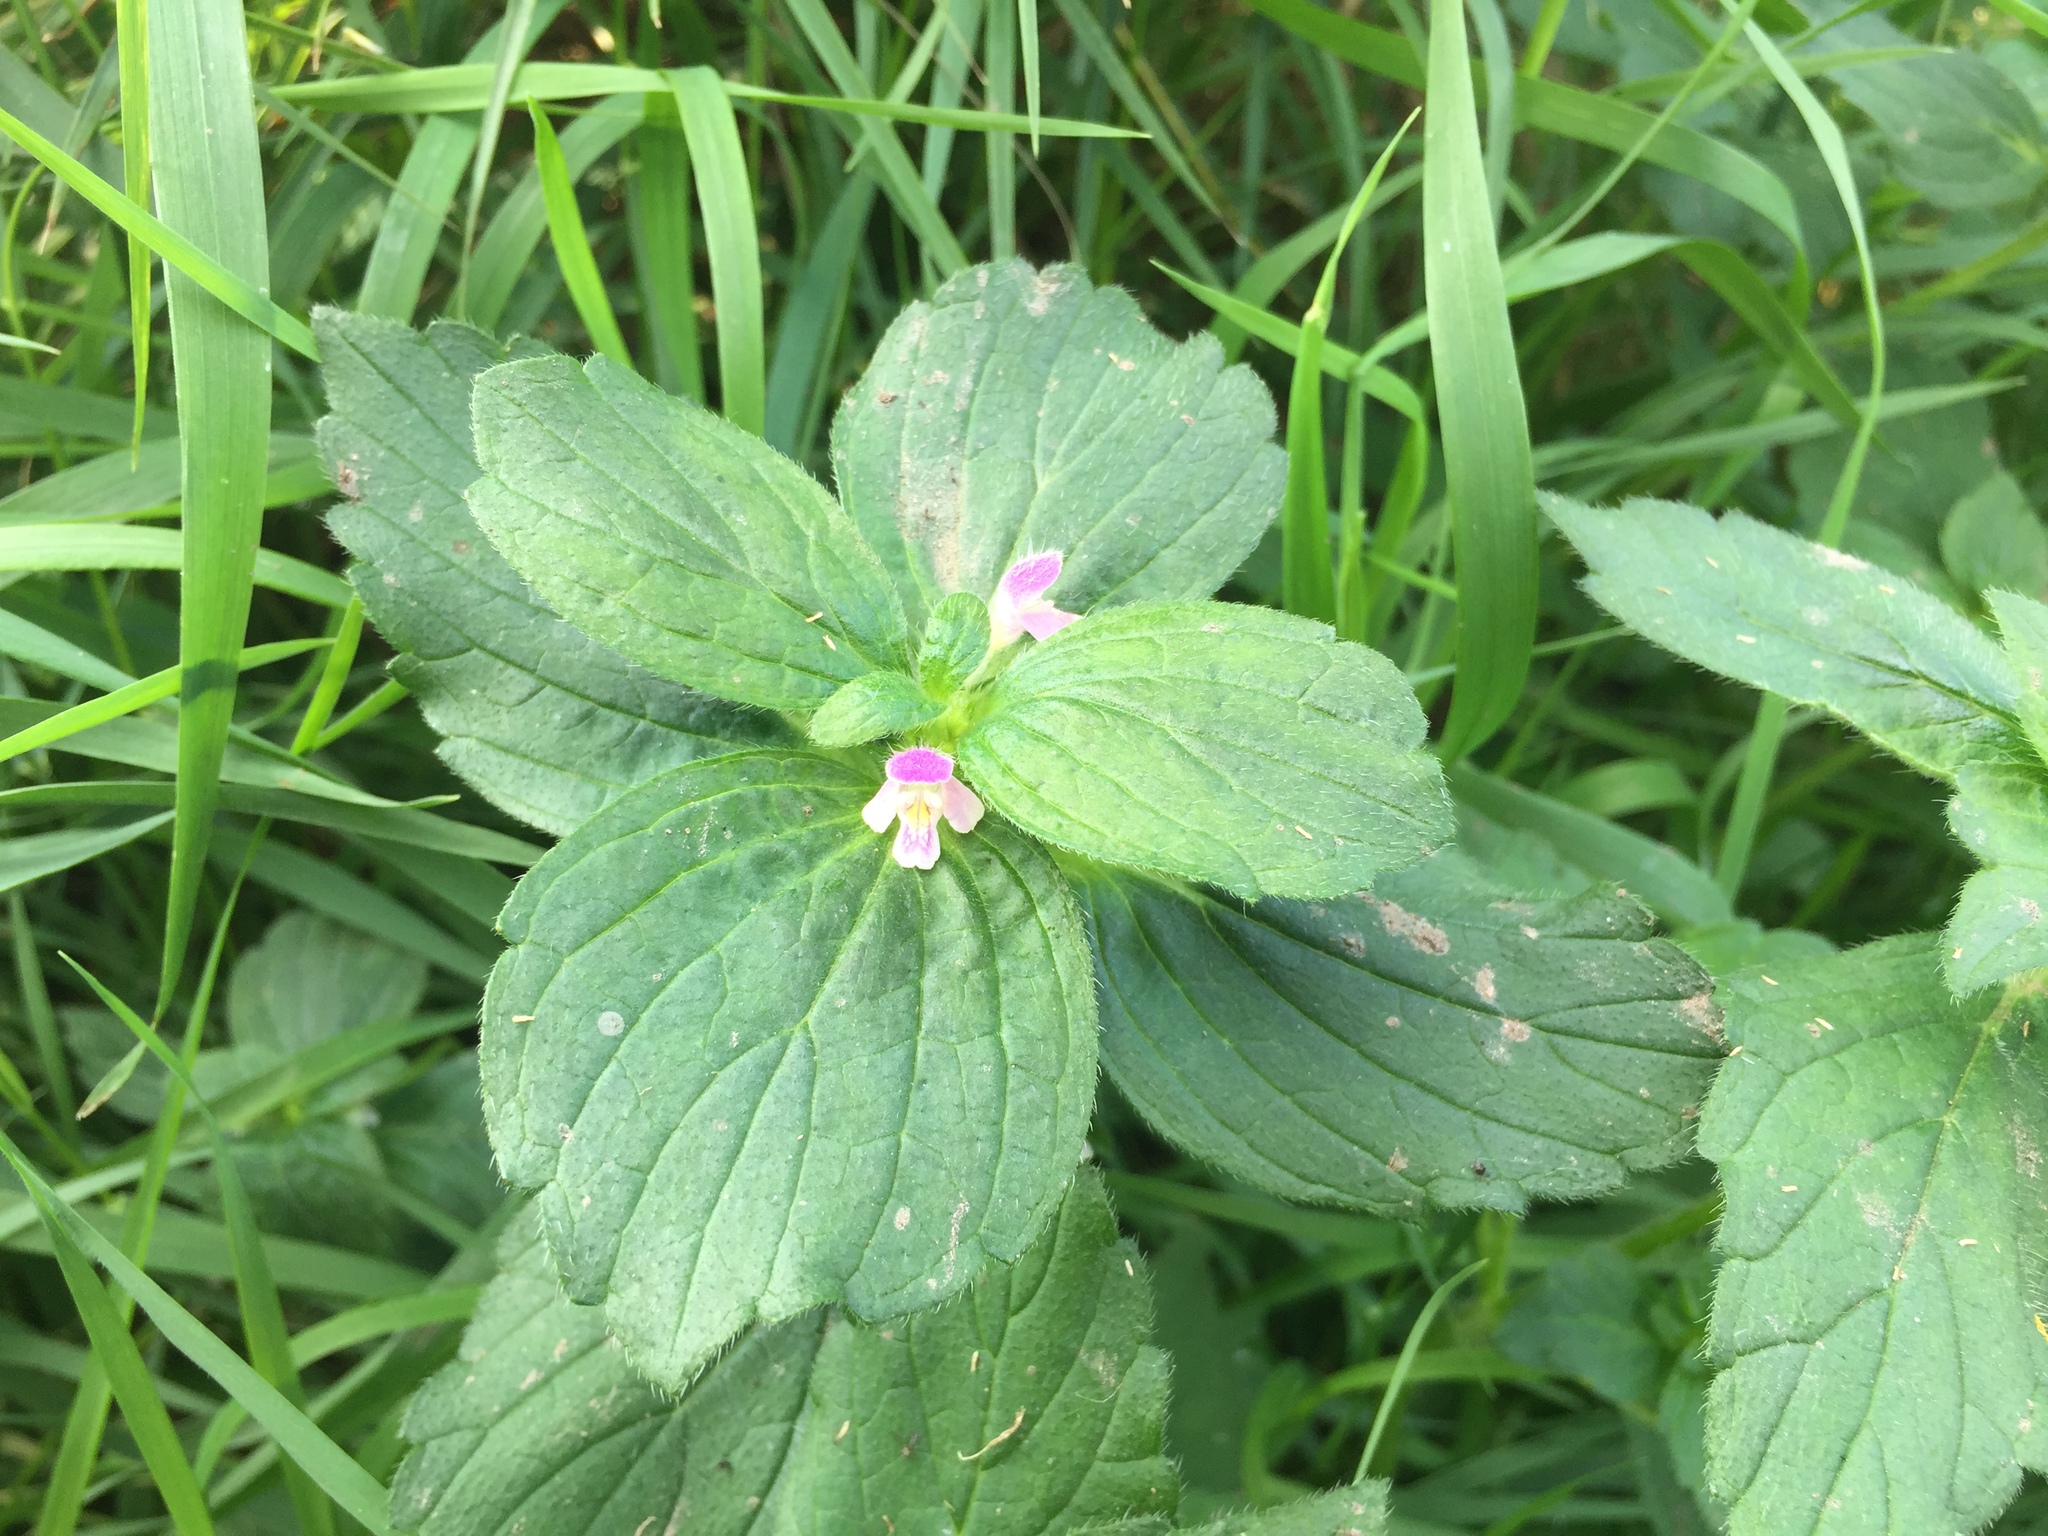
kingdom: Plantae
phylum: Tracheophyta
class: Magnoliopsida
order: Lamiales
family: Lamiaceae
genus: Galeopsis
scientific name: Galeopsis bifida
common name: Bifid hemp-nettle
